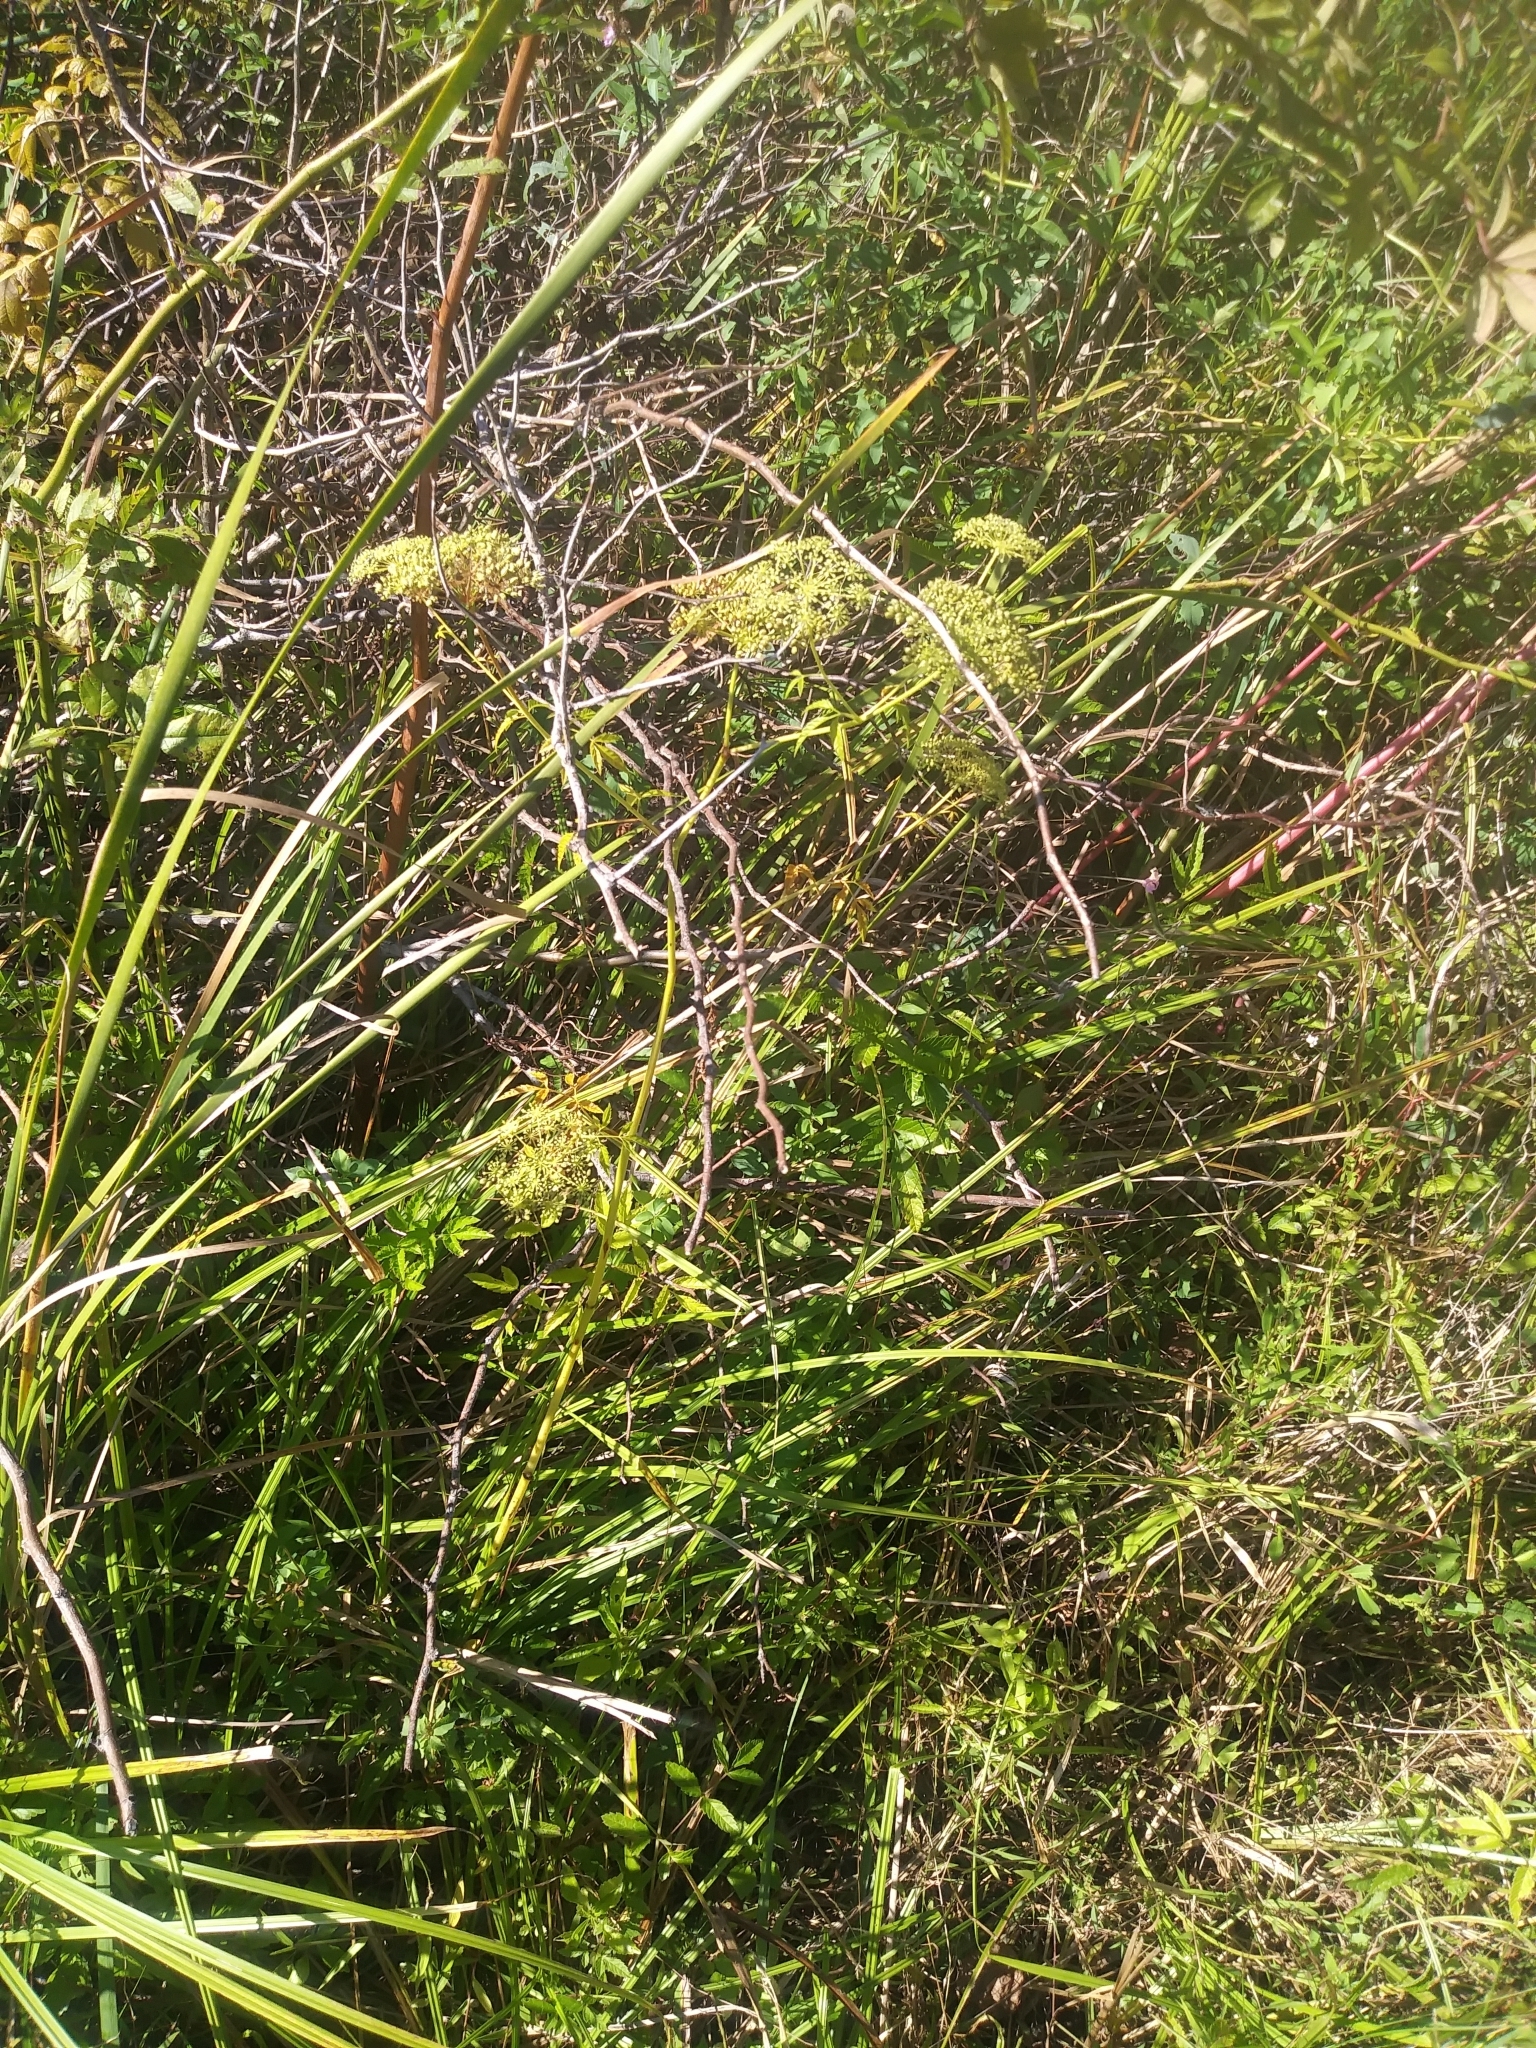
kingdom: Plantae
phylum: Tracheophyta
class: Magnoliopsida
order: Apiales
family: Apiaceae
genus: Cicuta
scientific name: Cicuta maculata
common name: Spotted cowbane
